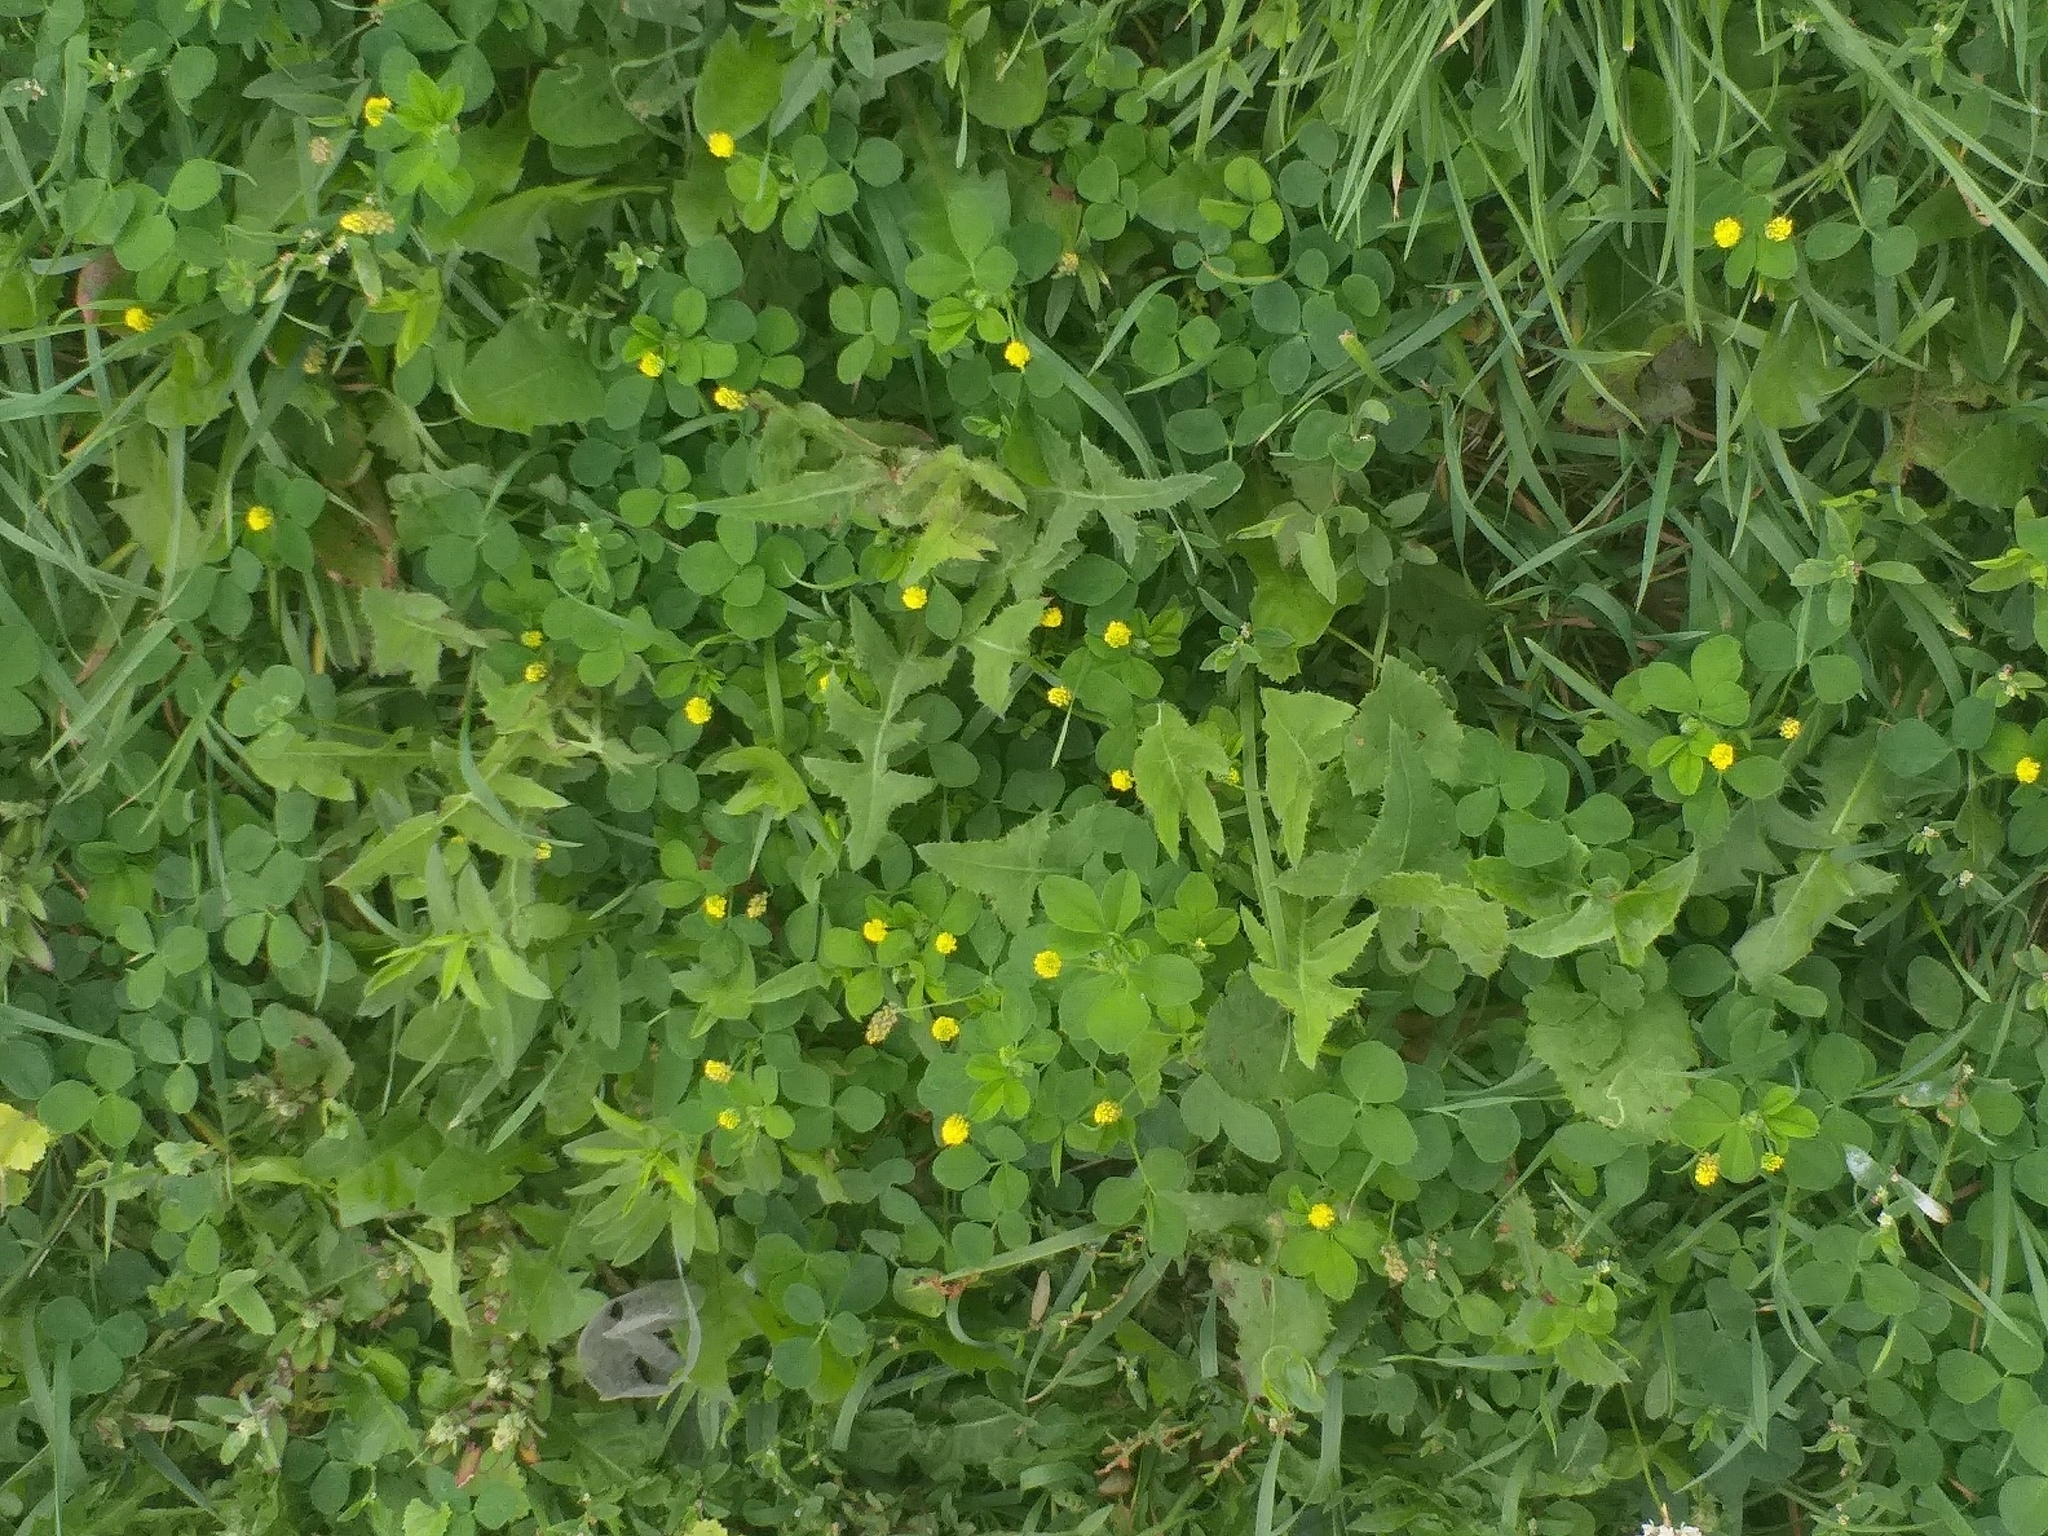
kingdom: Plantae
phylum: Tracheophyta
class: Magnoliopsida
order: Fabales
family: Fabaceae
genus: Medicago
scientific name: Medicago lupulina
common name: Black medick
